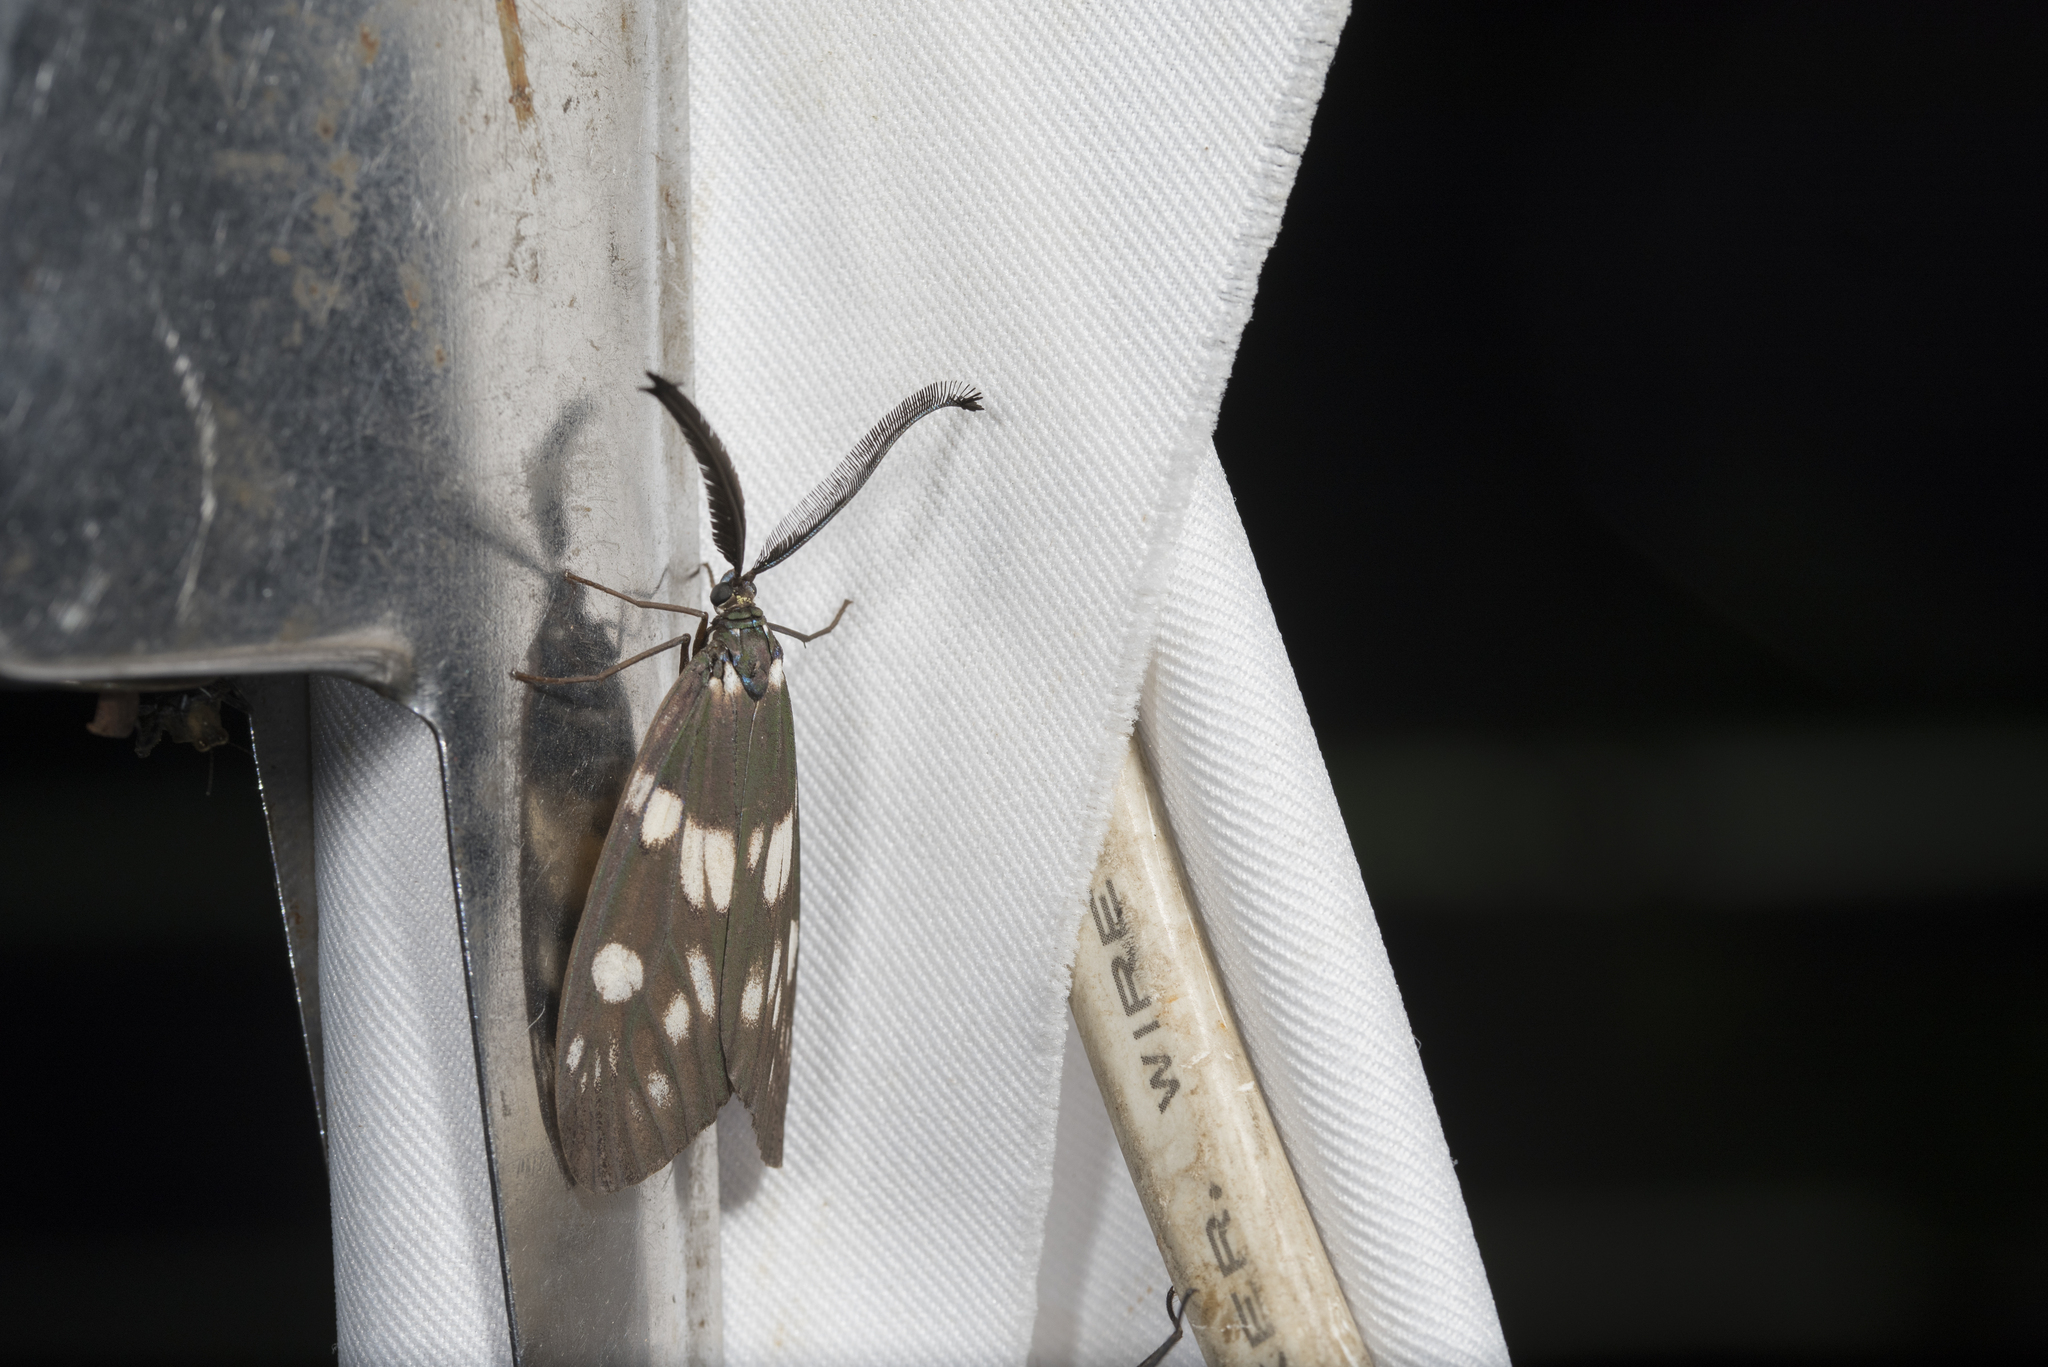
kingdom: Animalia
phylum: Arthropoda
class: Insecta
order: Lepidoptera
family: Zygaenidae
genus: Eterusia
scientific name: Eterusia aedea
